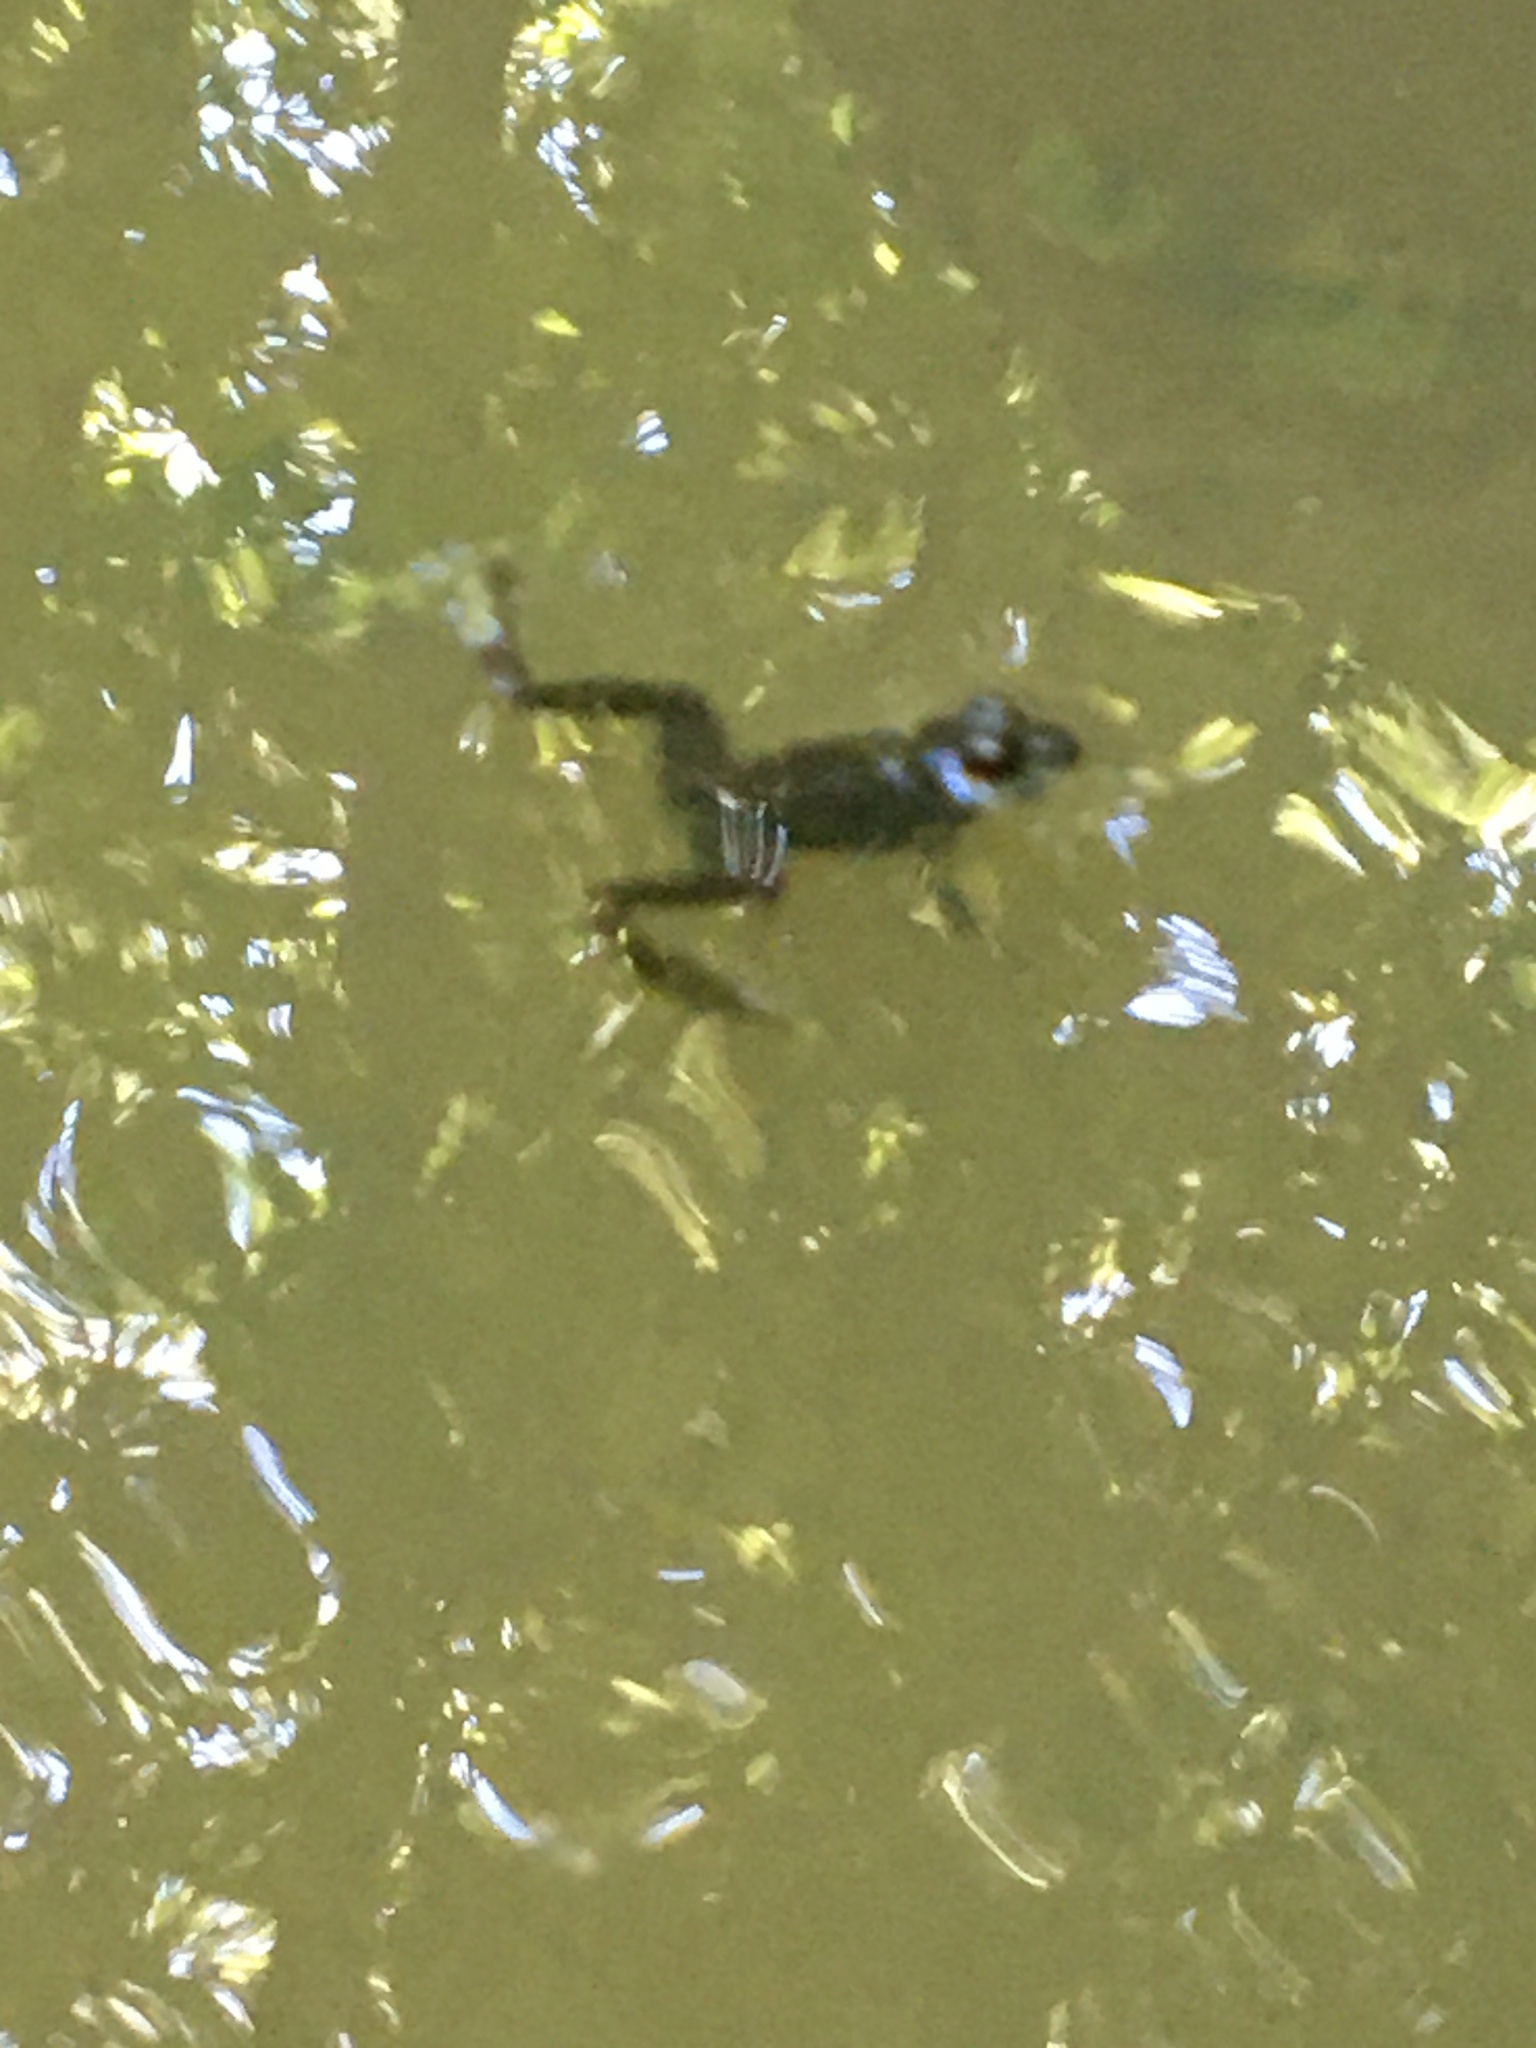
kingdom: Animalia
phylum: Chordata
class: Amphibia
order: Anura
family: Ranidae
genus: Lithobates
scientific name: Lithobates clamitans
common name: Green frog
